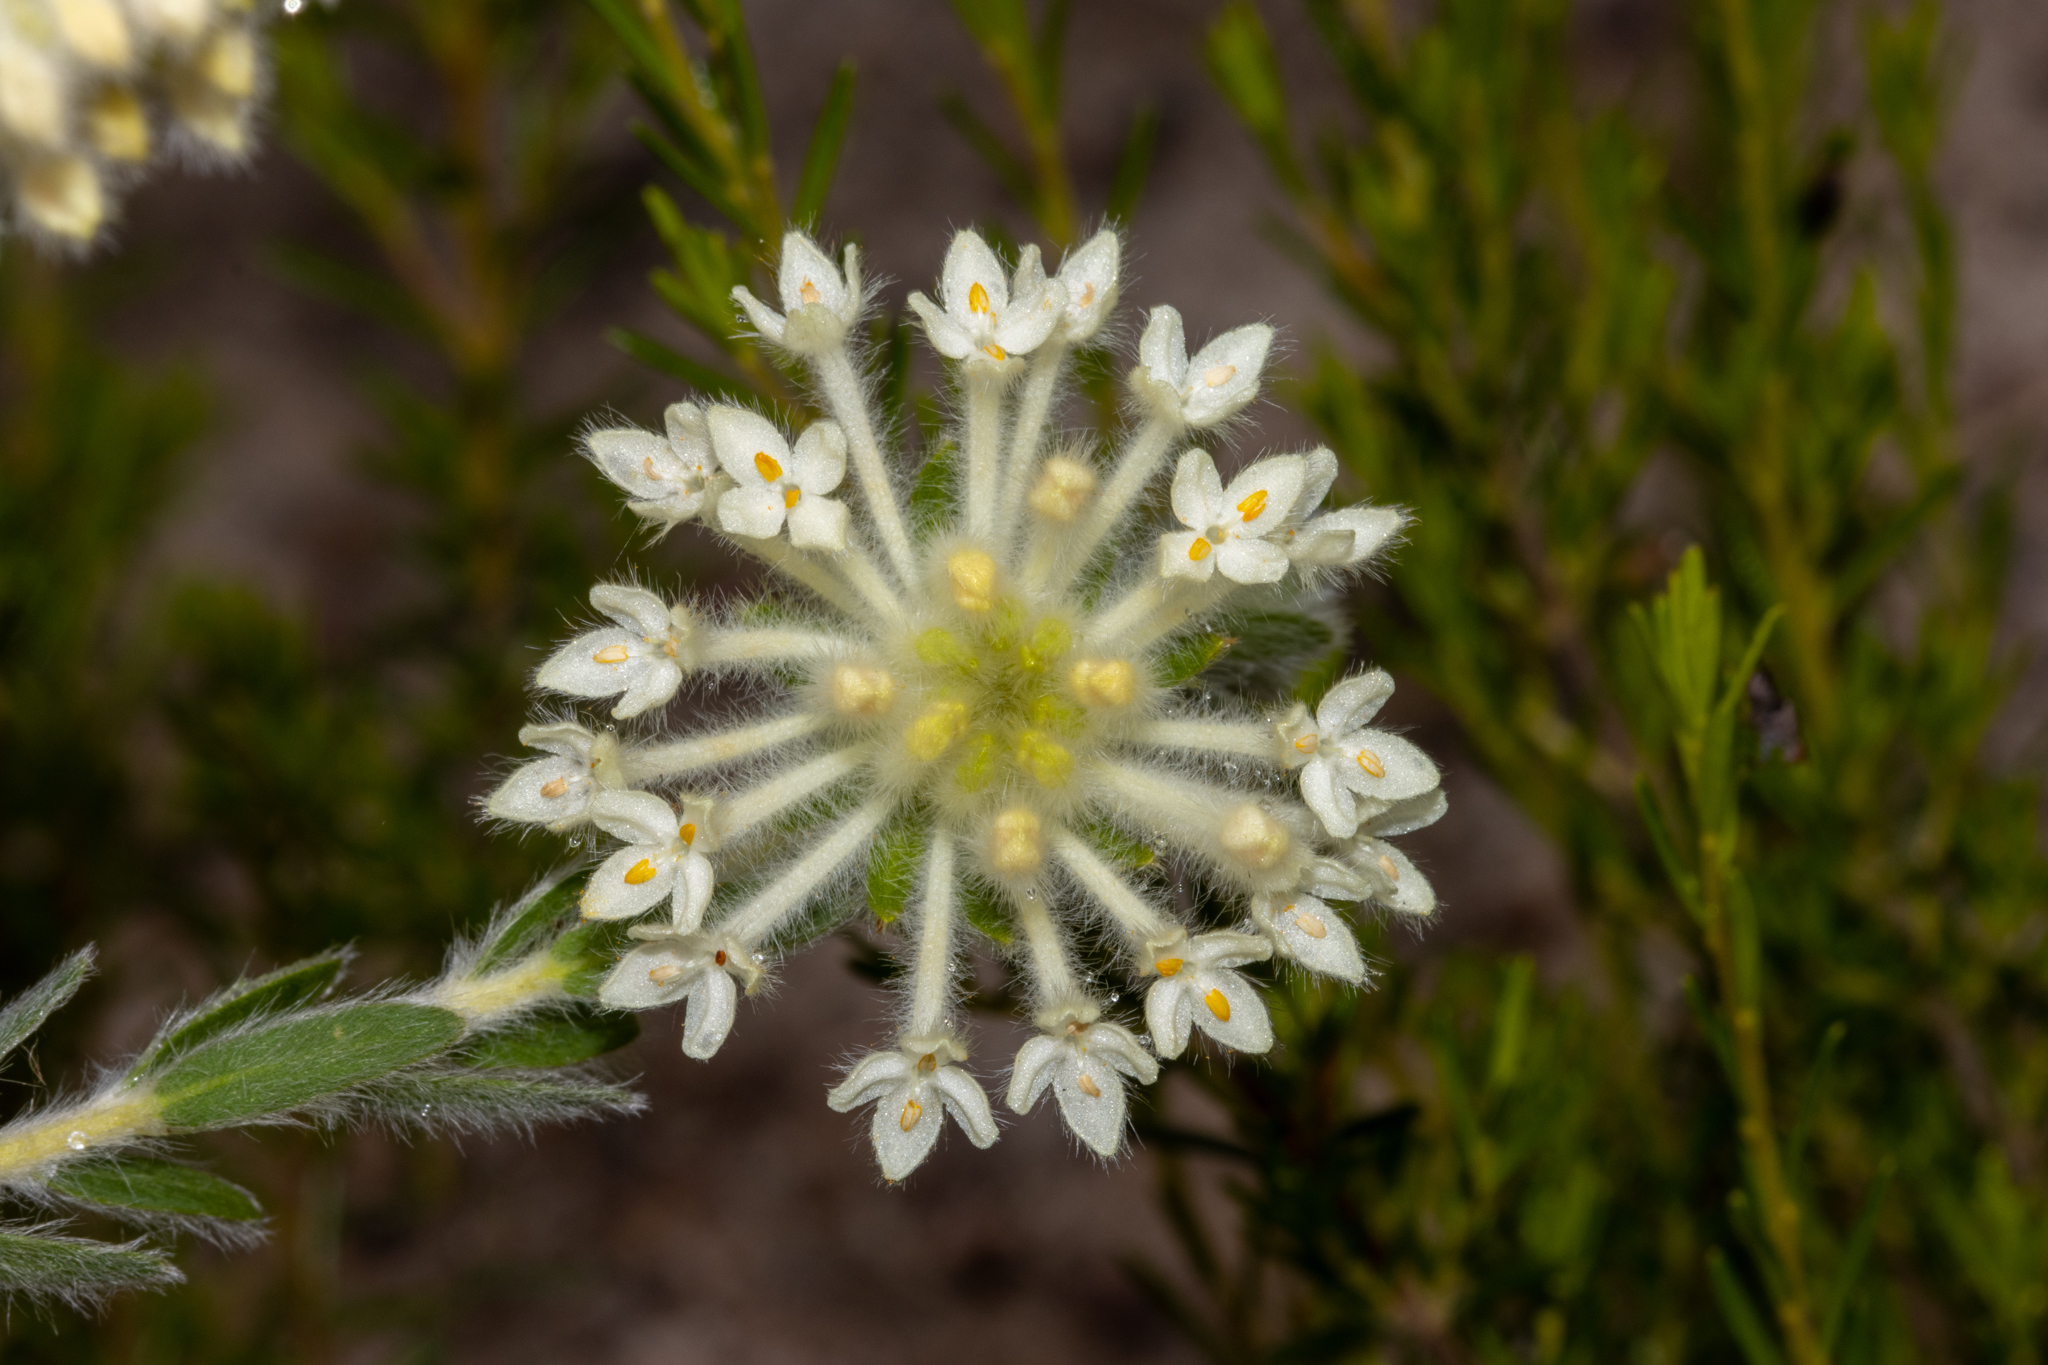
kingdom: Plantae
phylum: Tracheophyta
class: Magnoliopsida
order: Malvales
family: Thymelaeaceae
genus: Pimelea
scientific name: Pimelea octophylla
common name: Woolly riceflower
